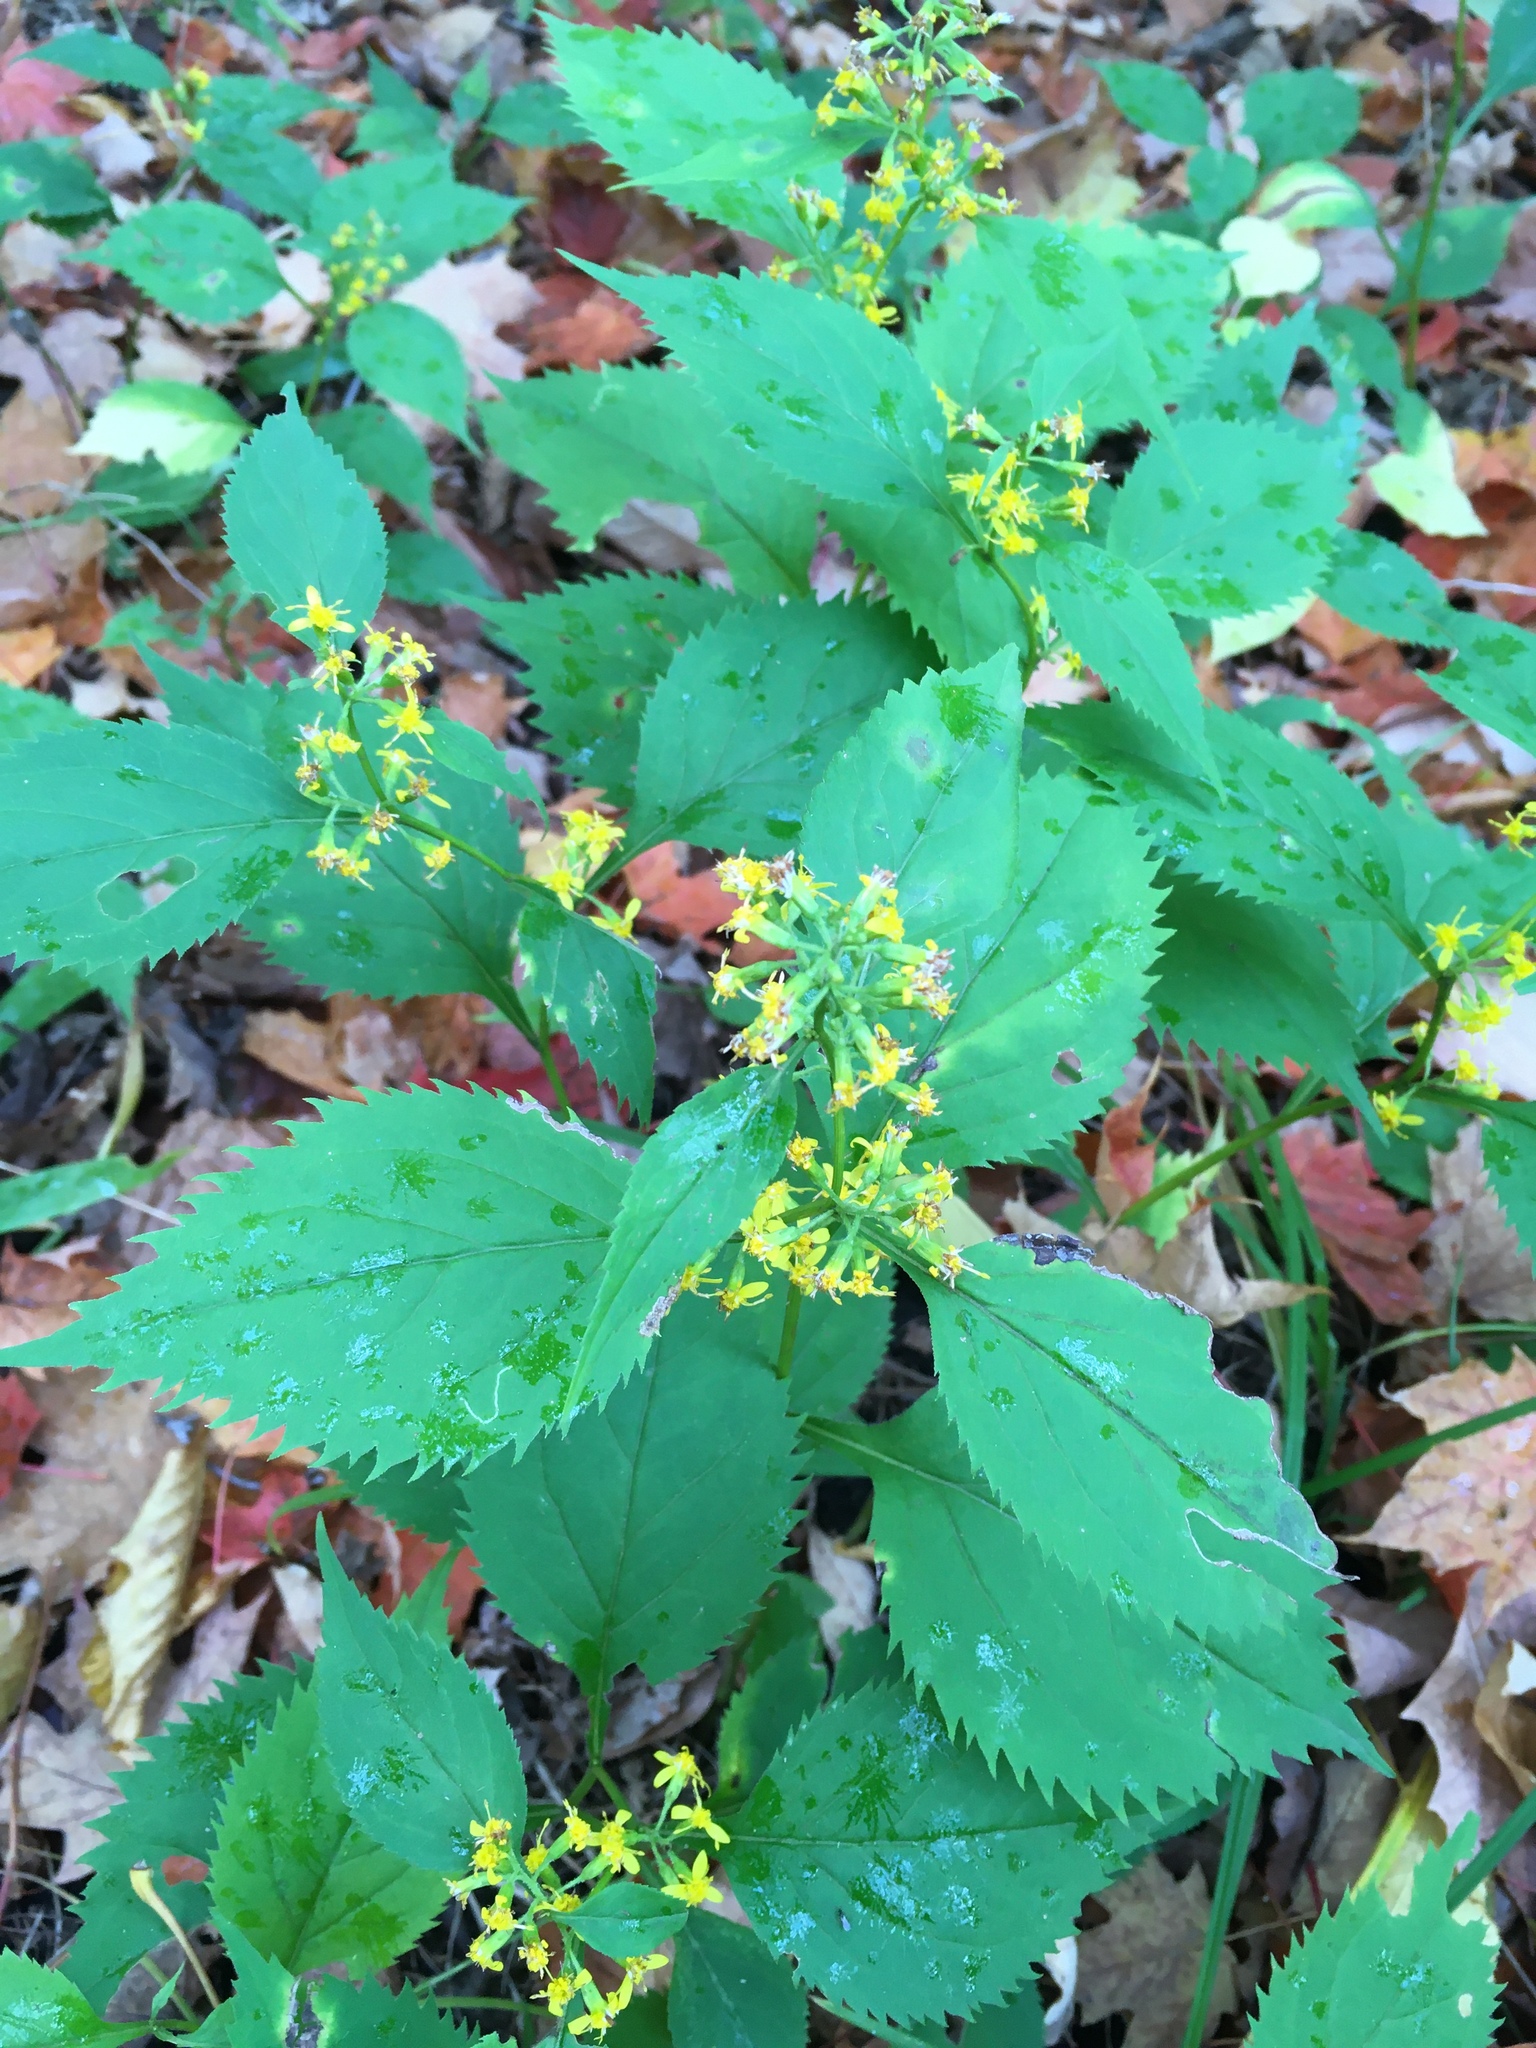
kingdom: Plantae
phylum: Tracheophyta
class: Magnoliopsida
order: Asterales
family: Asteraceae
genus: Solidago
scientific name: Solidago flexicaulis
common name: Zig-zag goldenrod
